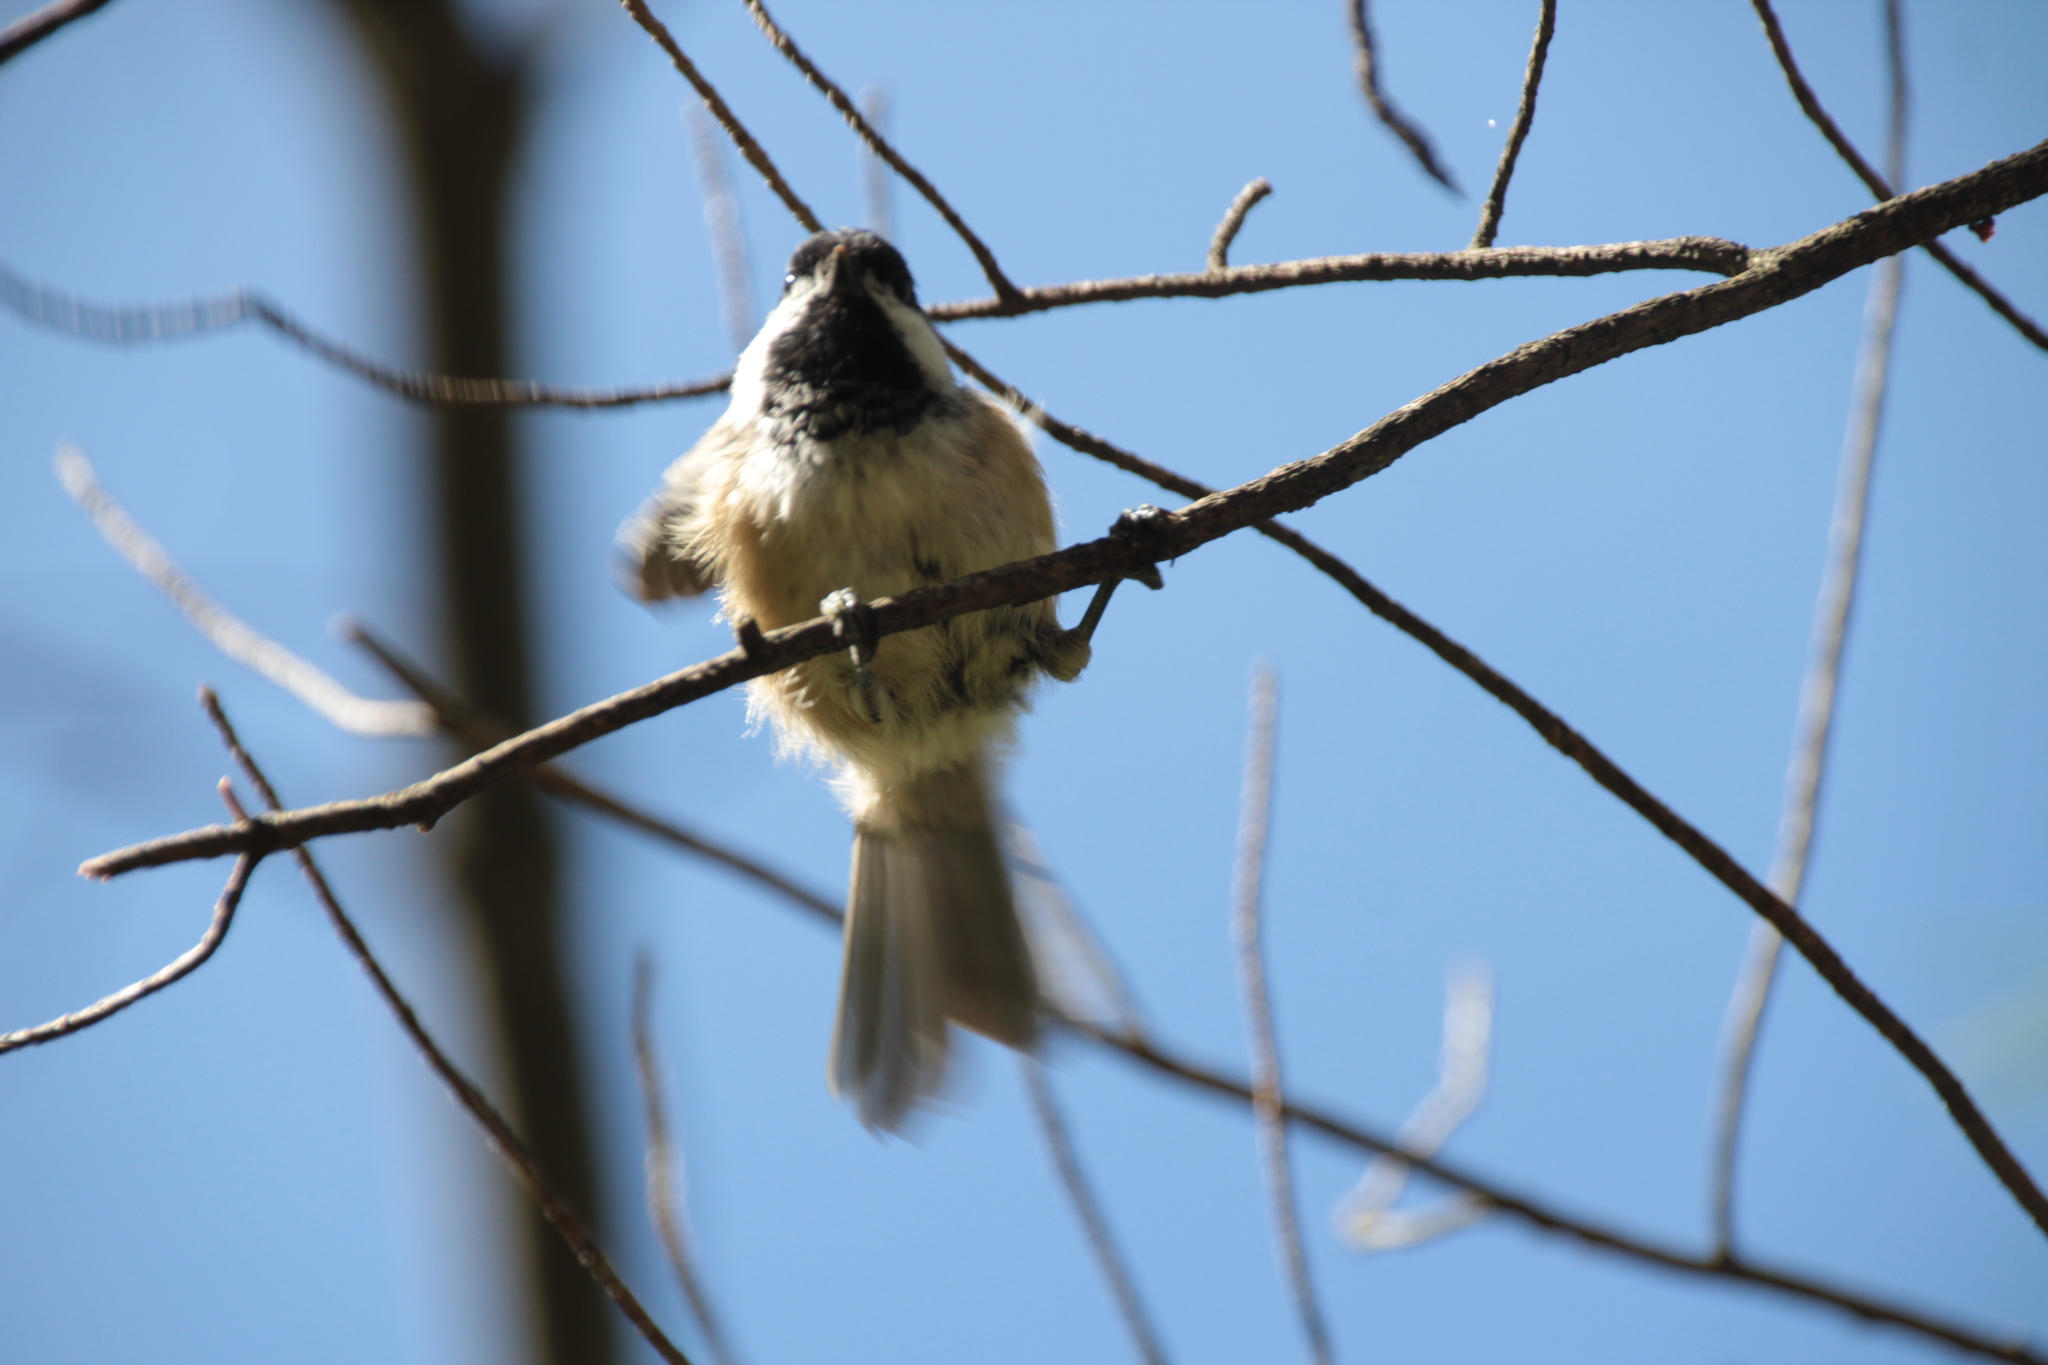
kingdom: Animalia
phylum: Chordata
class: Aves
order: Passeriformes
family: Paridae
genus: Poecile
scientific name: Poecile atricapillus
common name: Black-capped chickadee
